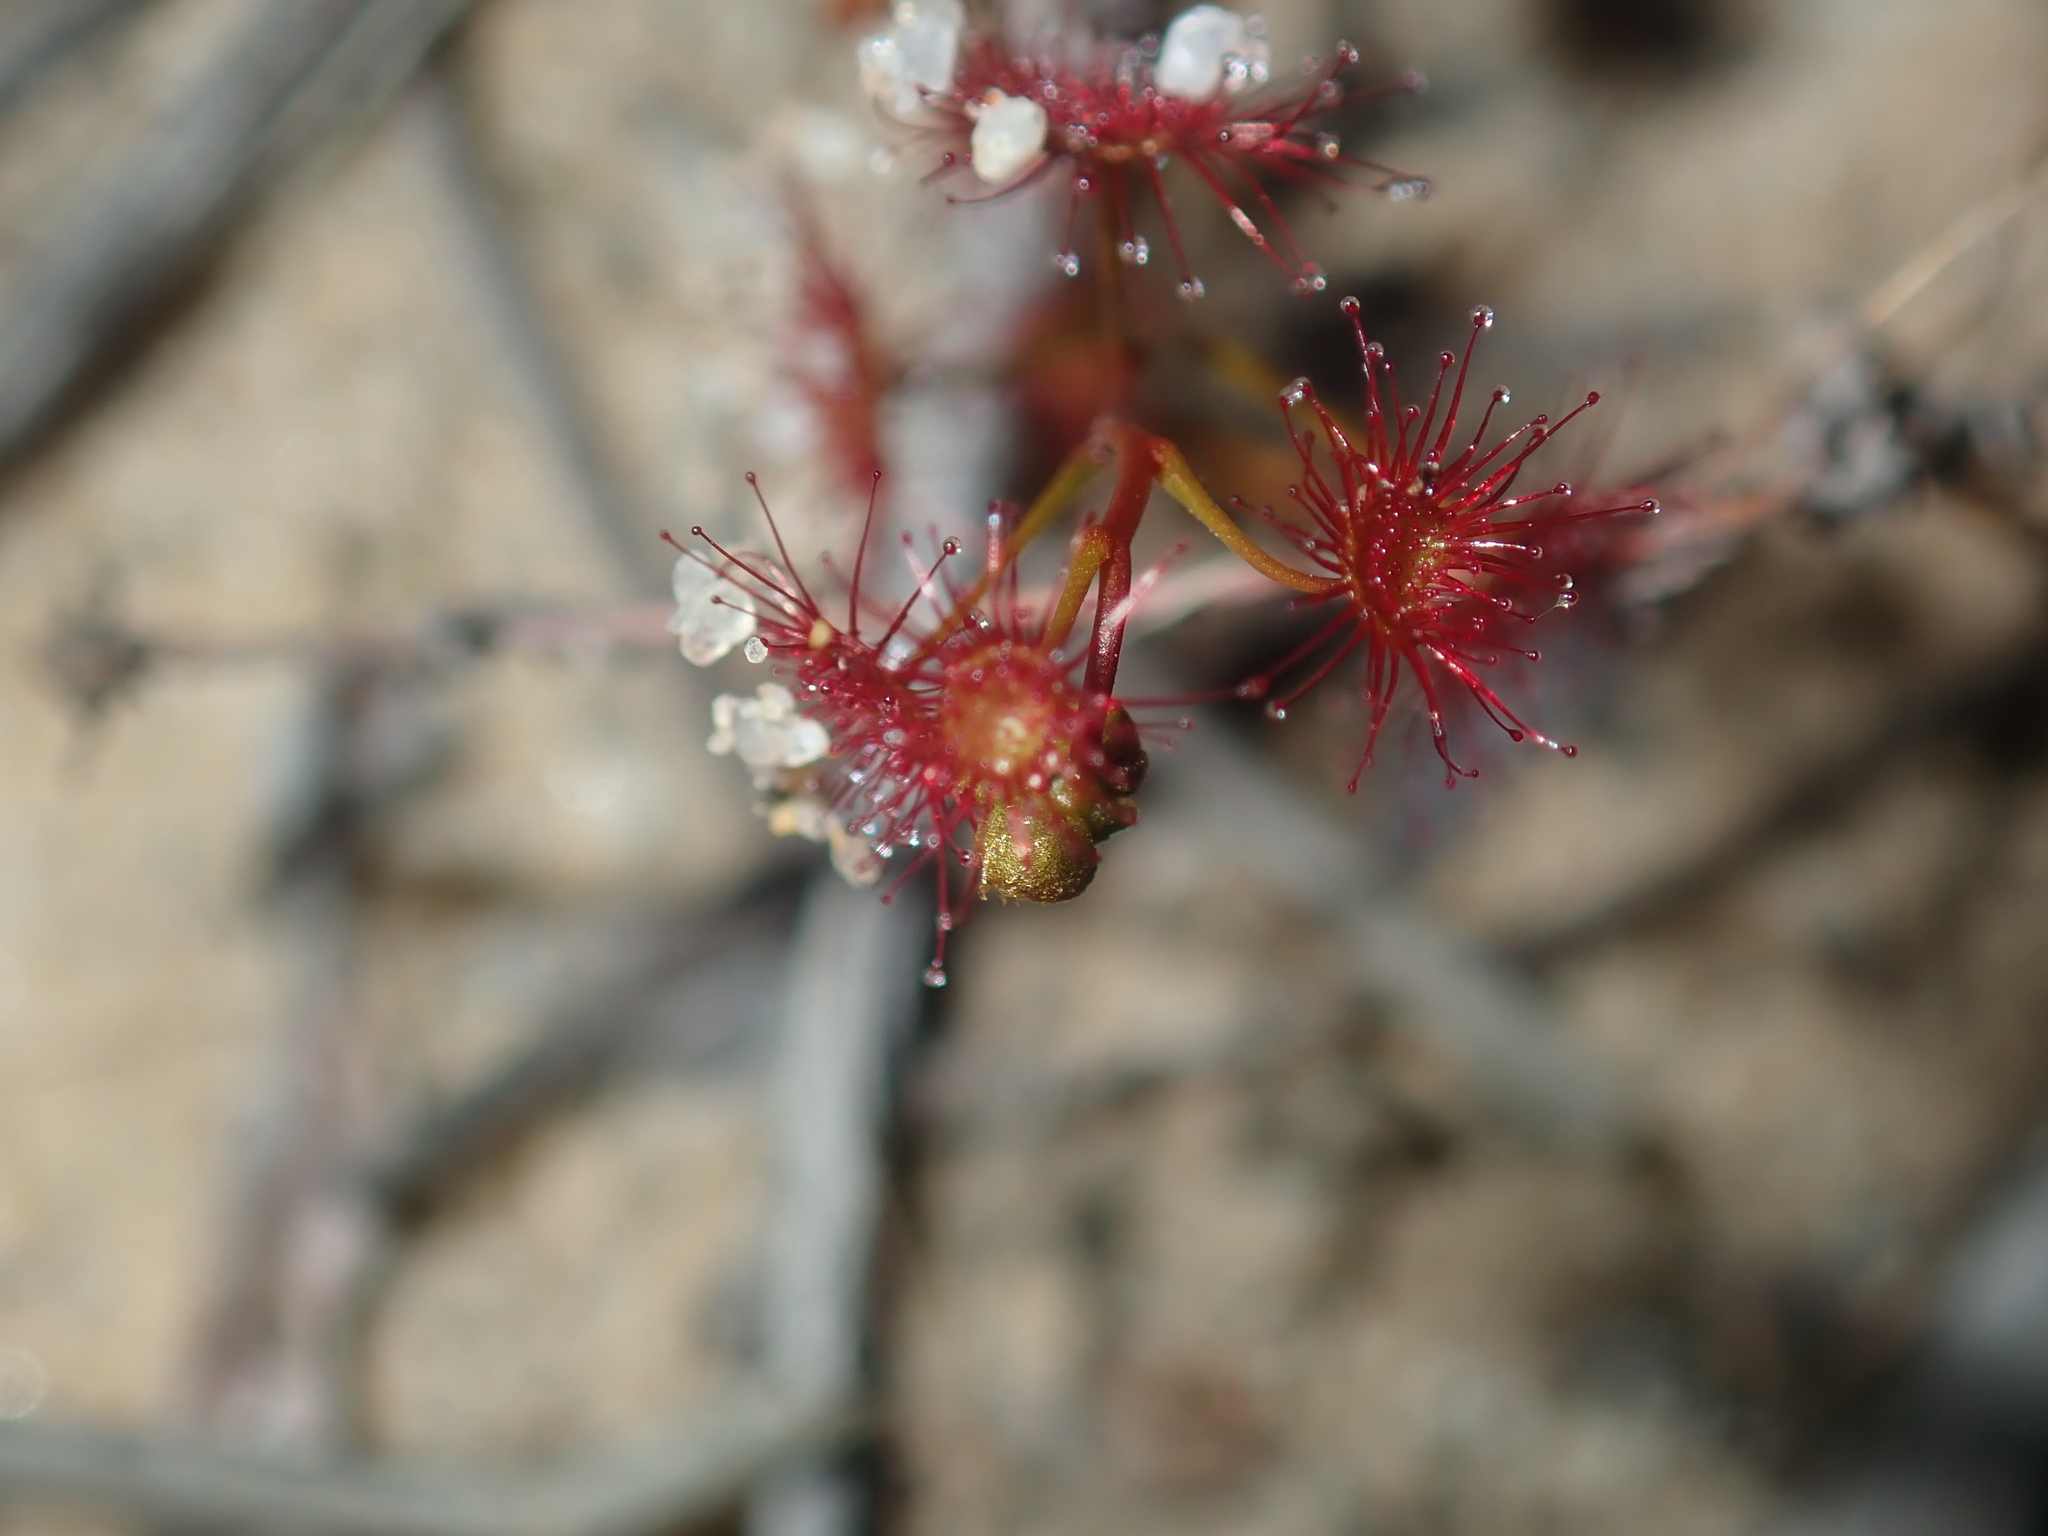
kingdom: Plantae
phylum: Tracheophyta
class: Magnoliopsida
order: Caryophyllales
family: Droseraceae
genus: Drosera
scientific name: Drosera radicans
